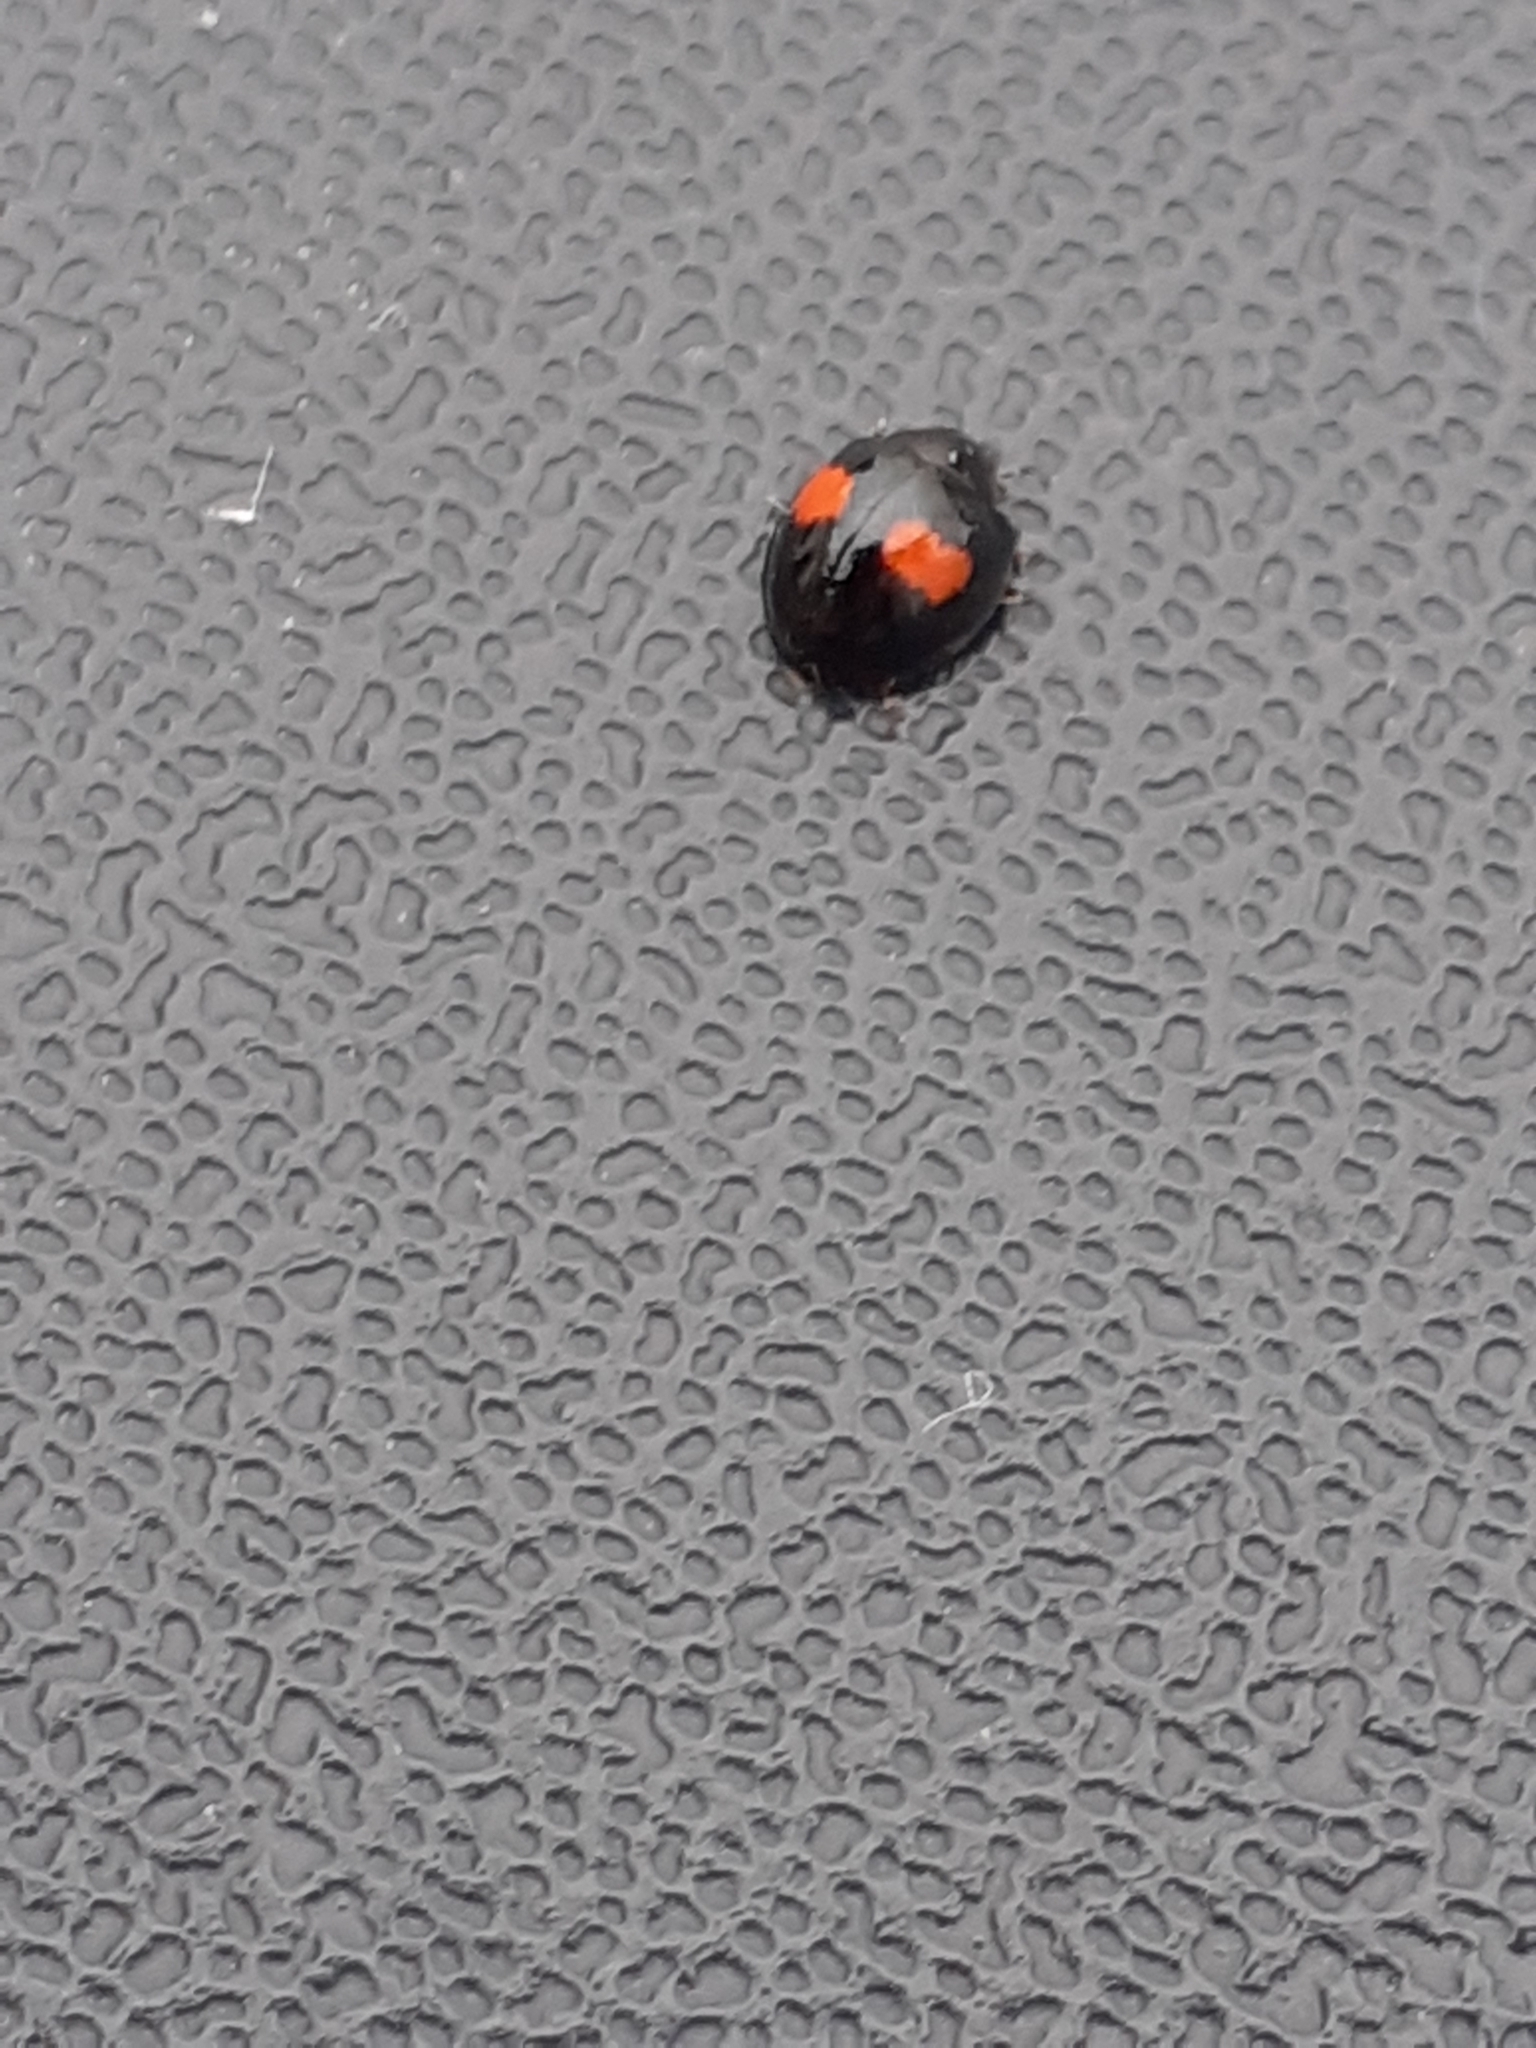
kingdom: Animalia
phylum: Arthropoda
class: Insecta
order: Coleoptera
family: Coccinellidae
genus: Chilocorus
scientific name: Chilocorus canariensis
